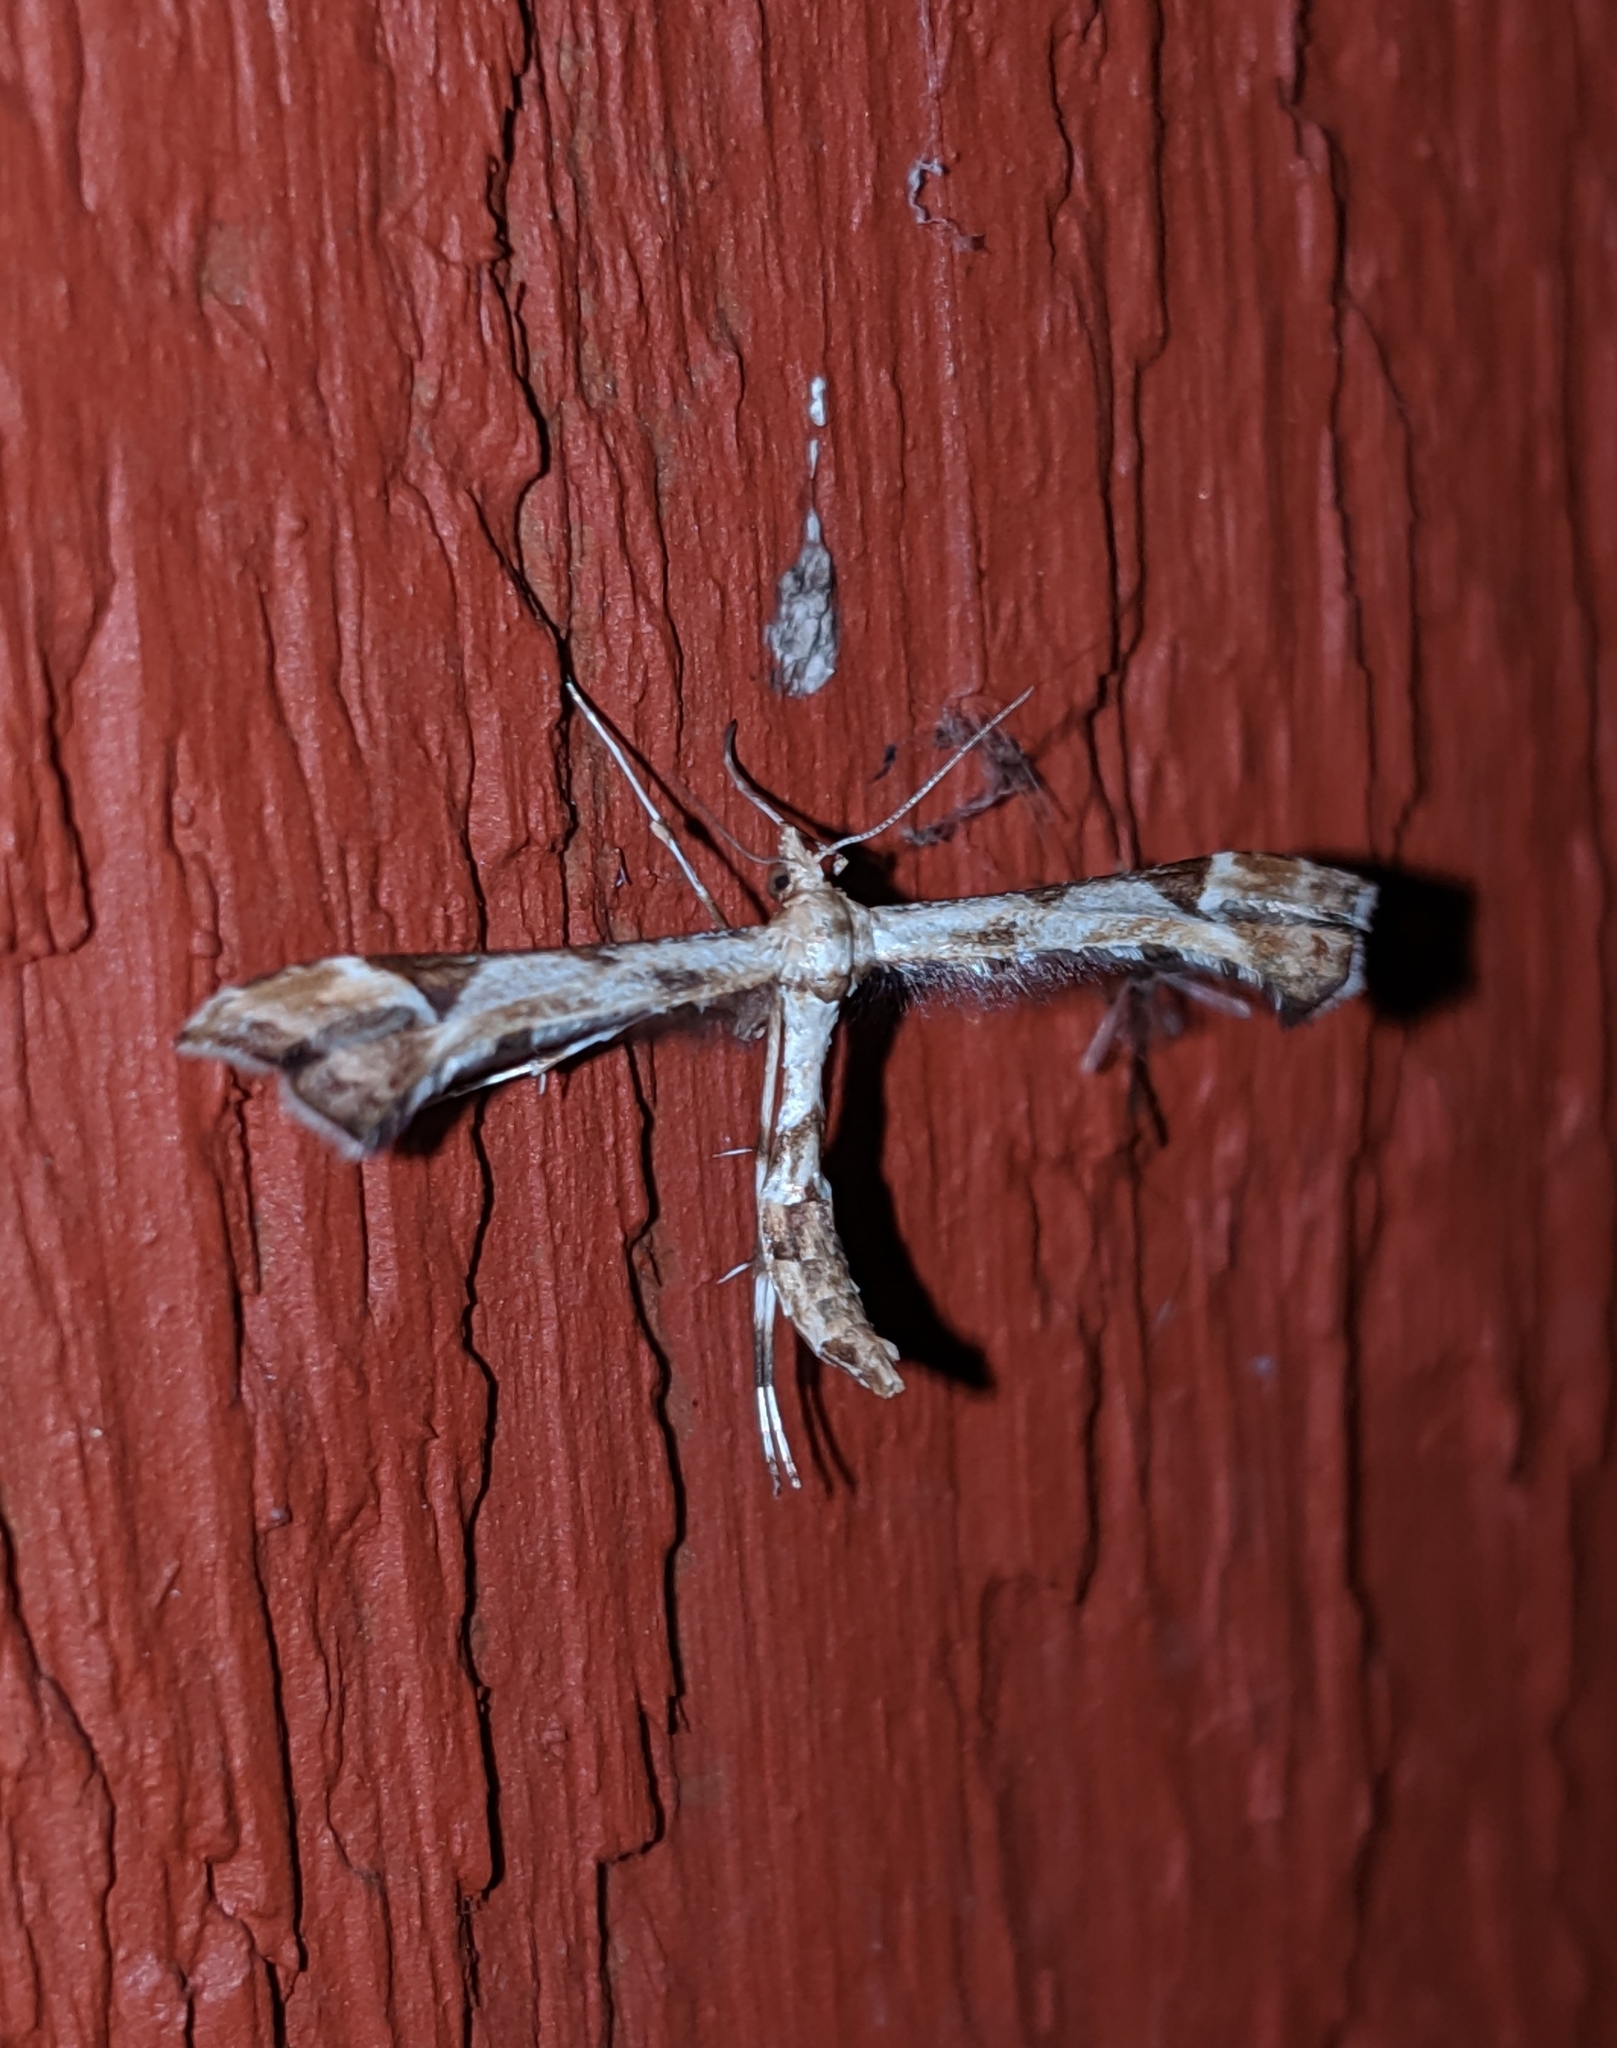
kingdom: Animalia
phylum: Arthropoda
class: Insecta
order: Lepidoptera
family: Pterophoridae
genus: Platyptilia
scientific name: Platyptilia carduidactylus
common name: Artichoke plume moth
